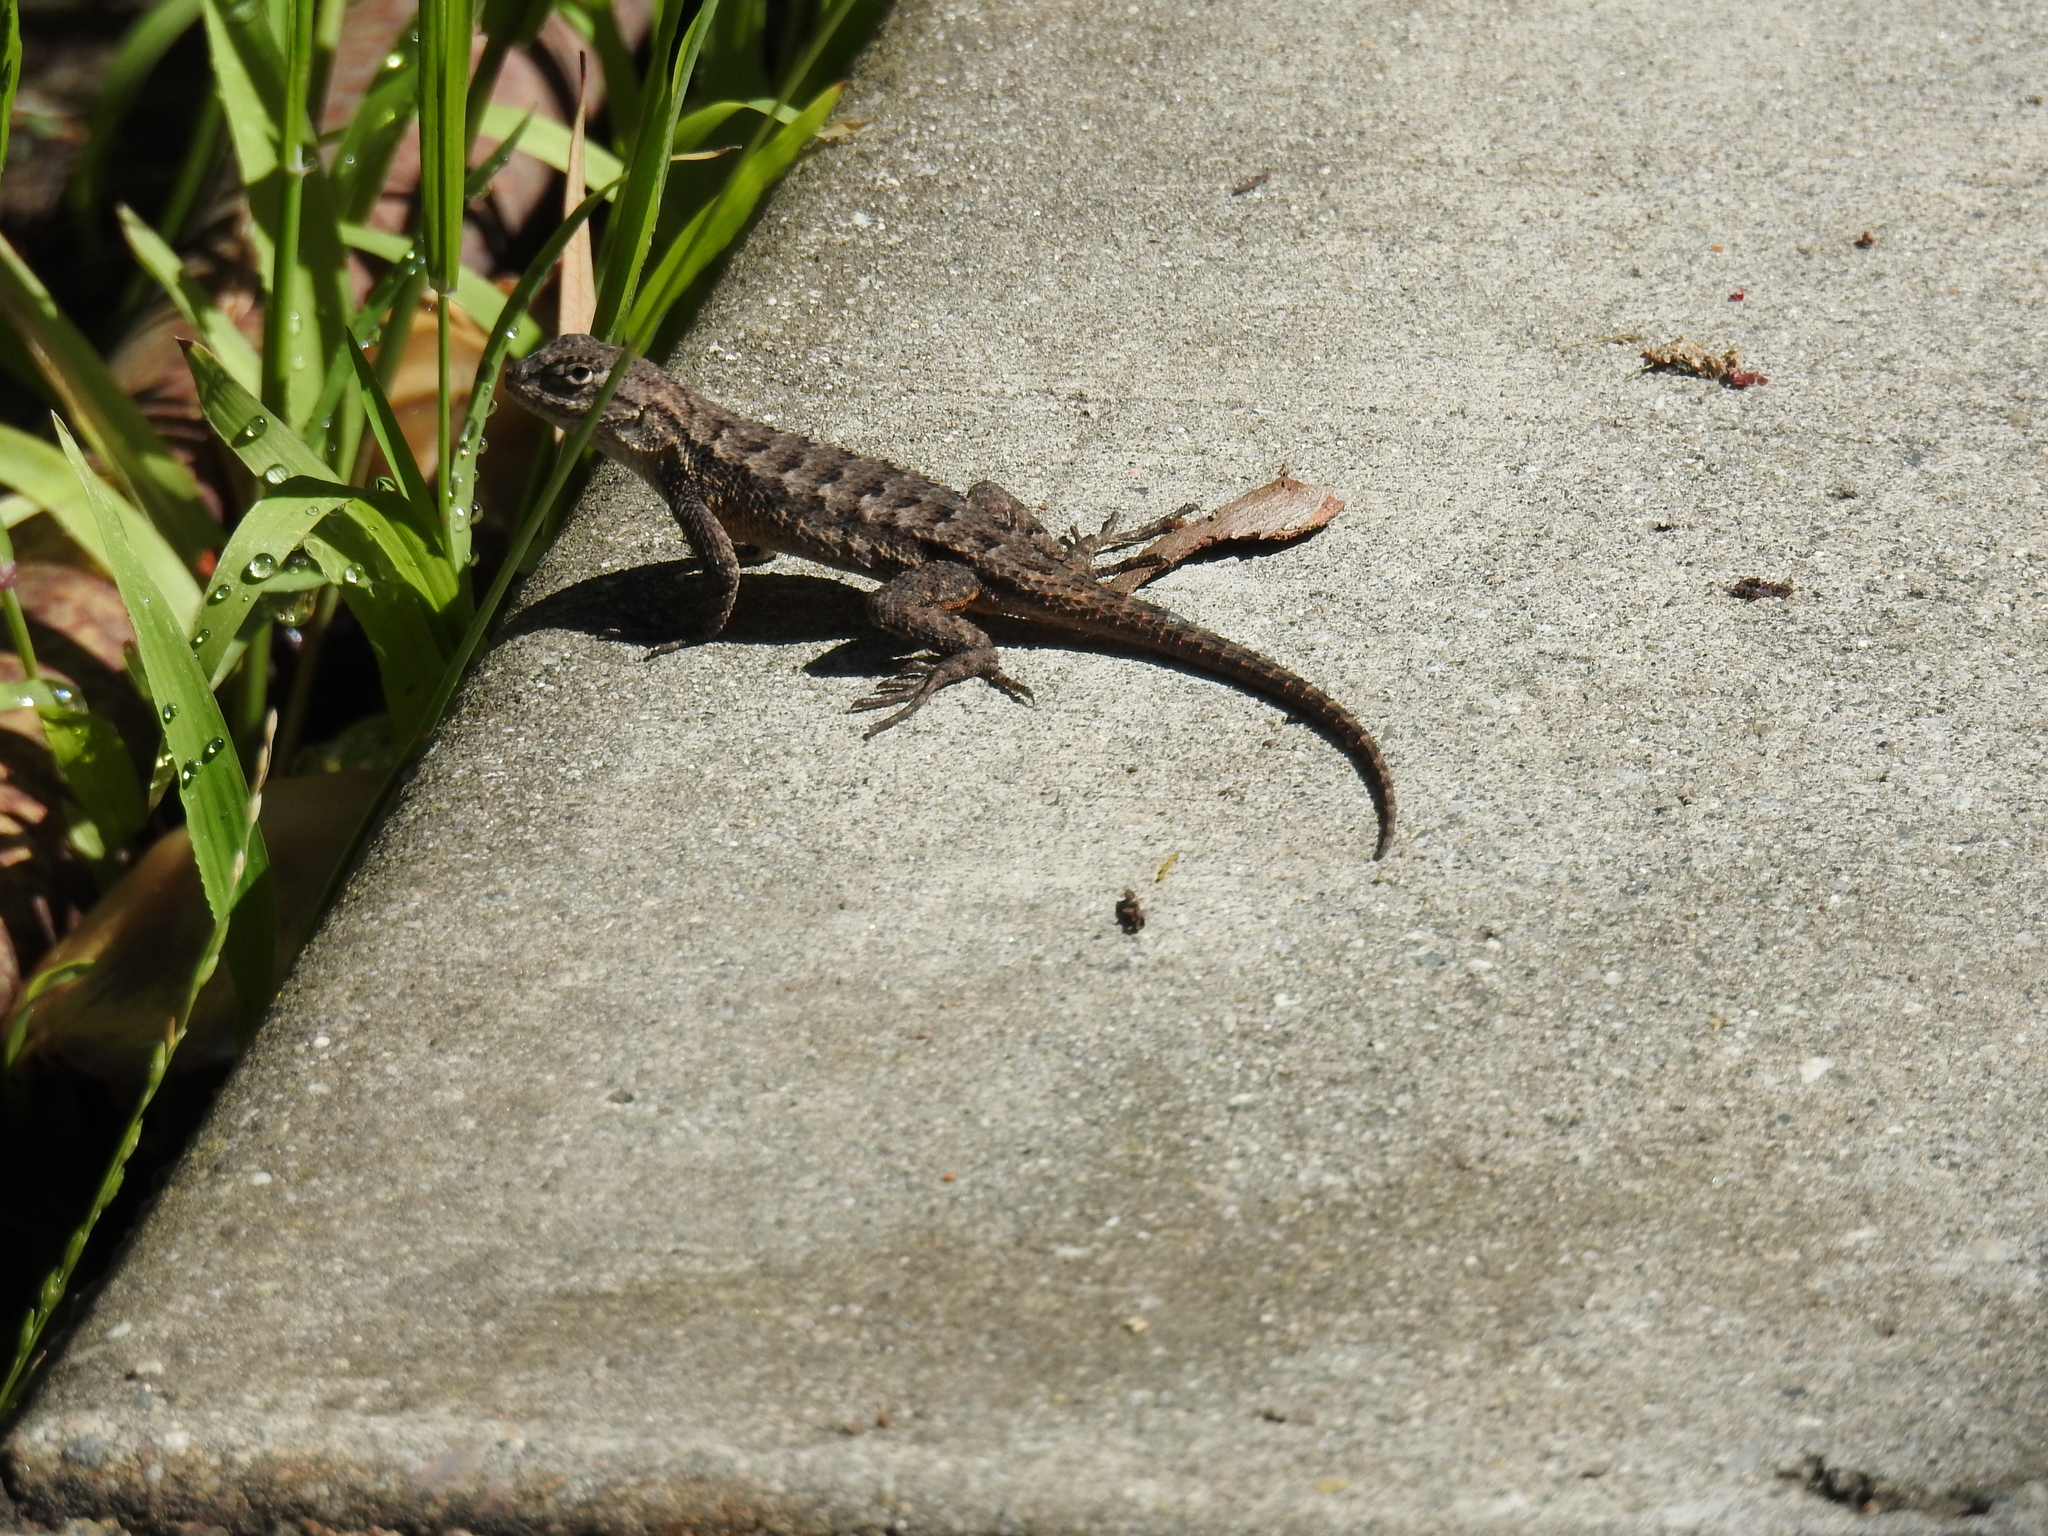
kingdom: Animalia
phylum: Chordata
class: Squamata
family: Phrynosomatidae
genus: Sceloporus
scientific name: Sceloporus occidentalis
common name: Western fence lizard
